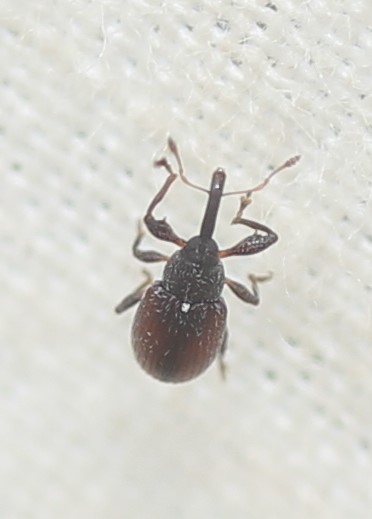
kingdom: Animalia
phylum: Arthropoda
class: Insecta
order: Coleoptera
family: Curculionidae
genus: Anthonomus
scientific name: Anthonomus suturalis
